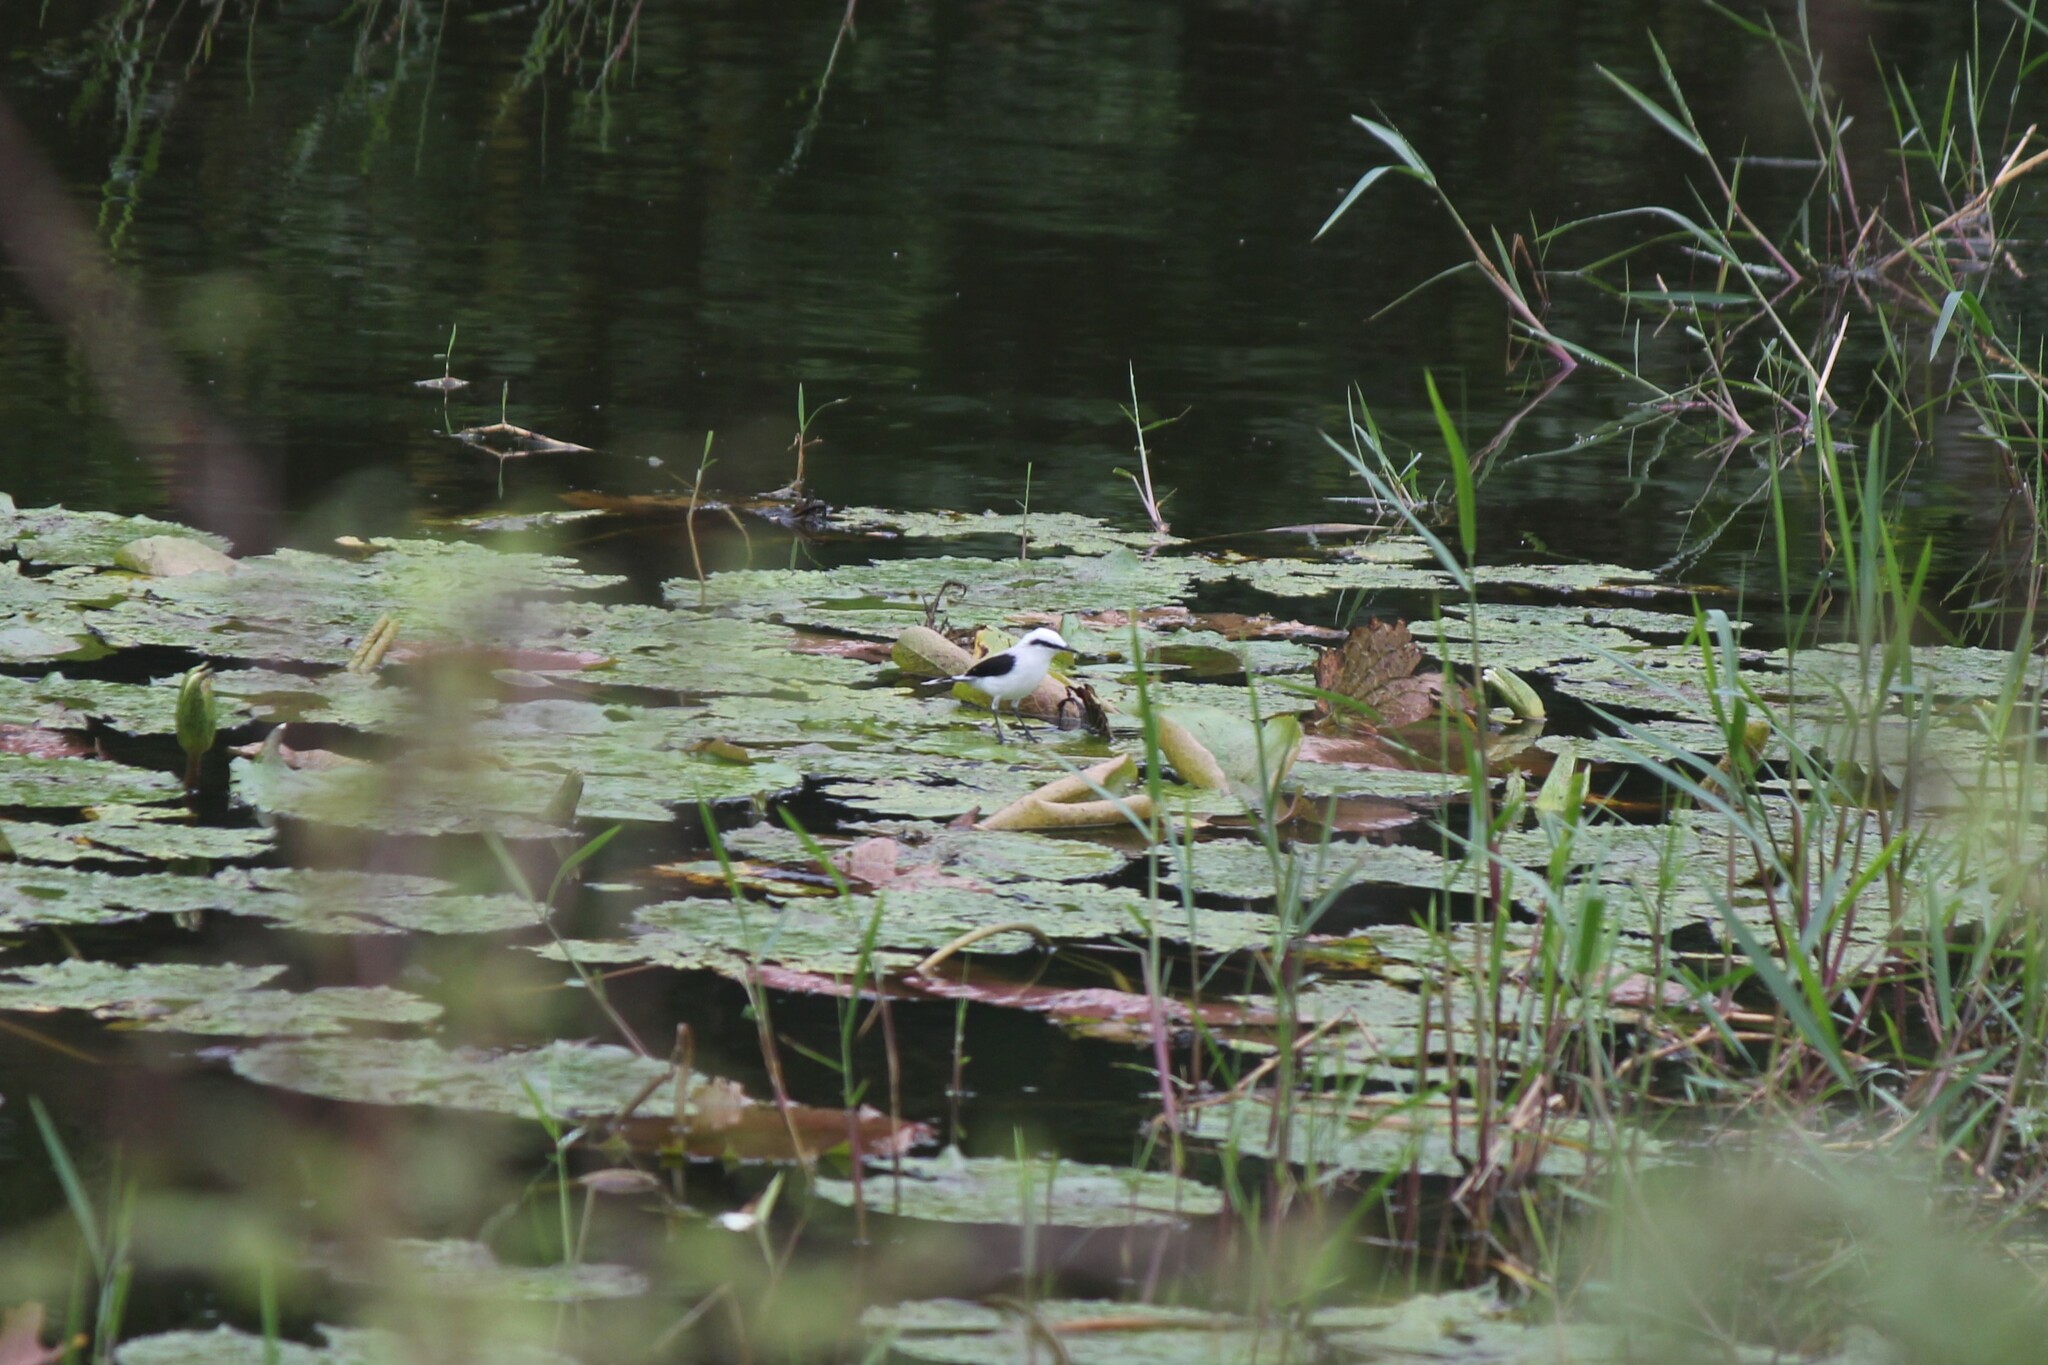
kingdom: Animalia
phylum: Chordata
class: Aves
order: Passeriformes
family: Tyrannidae
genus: Fluvicola
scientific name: Fluvicola nengeta
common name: Masked water tyrant
